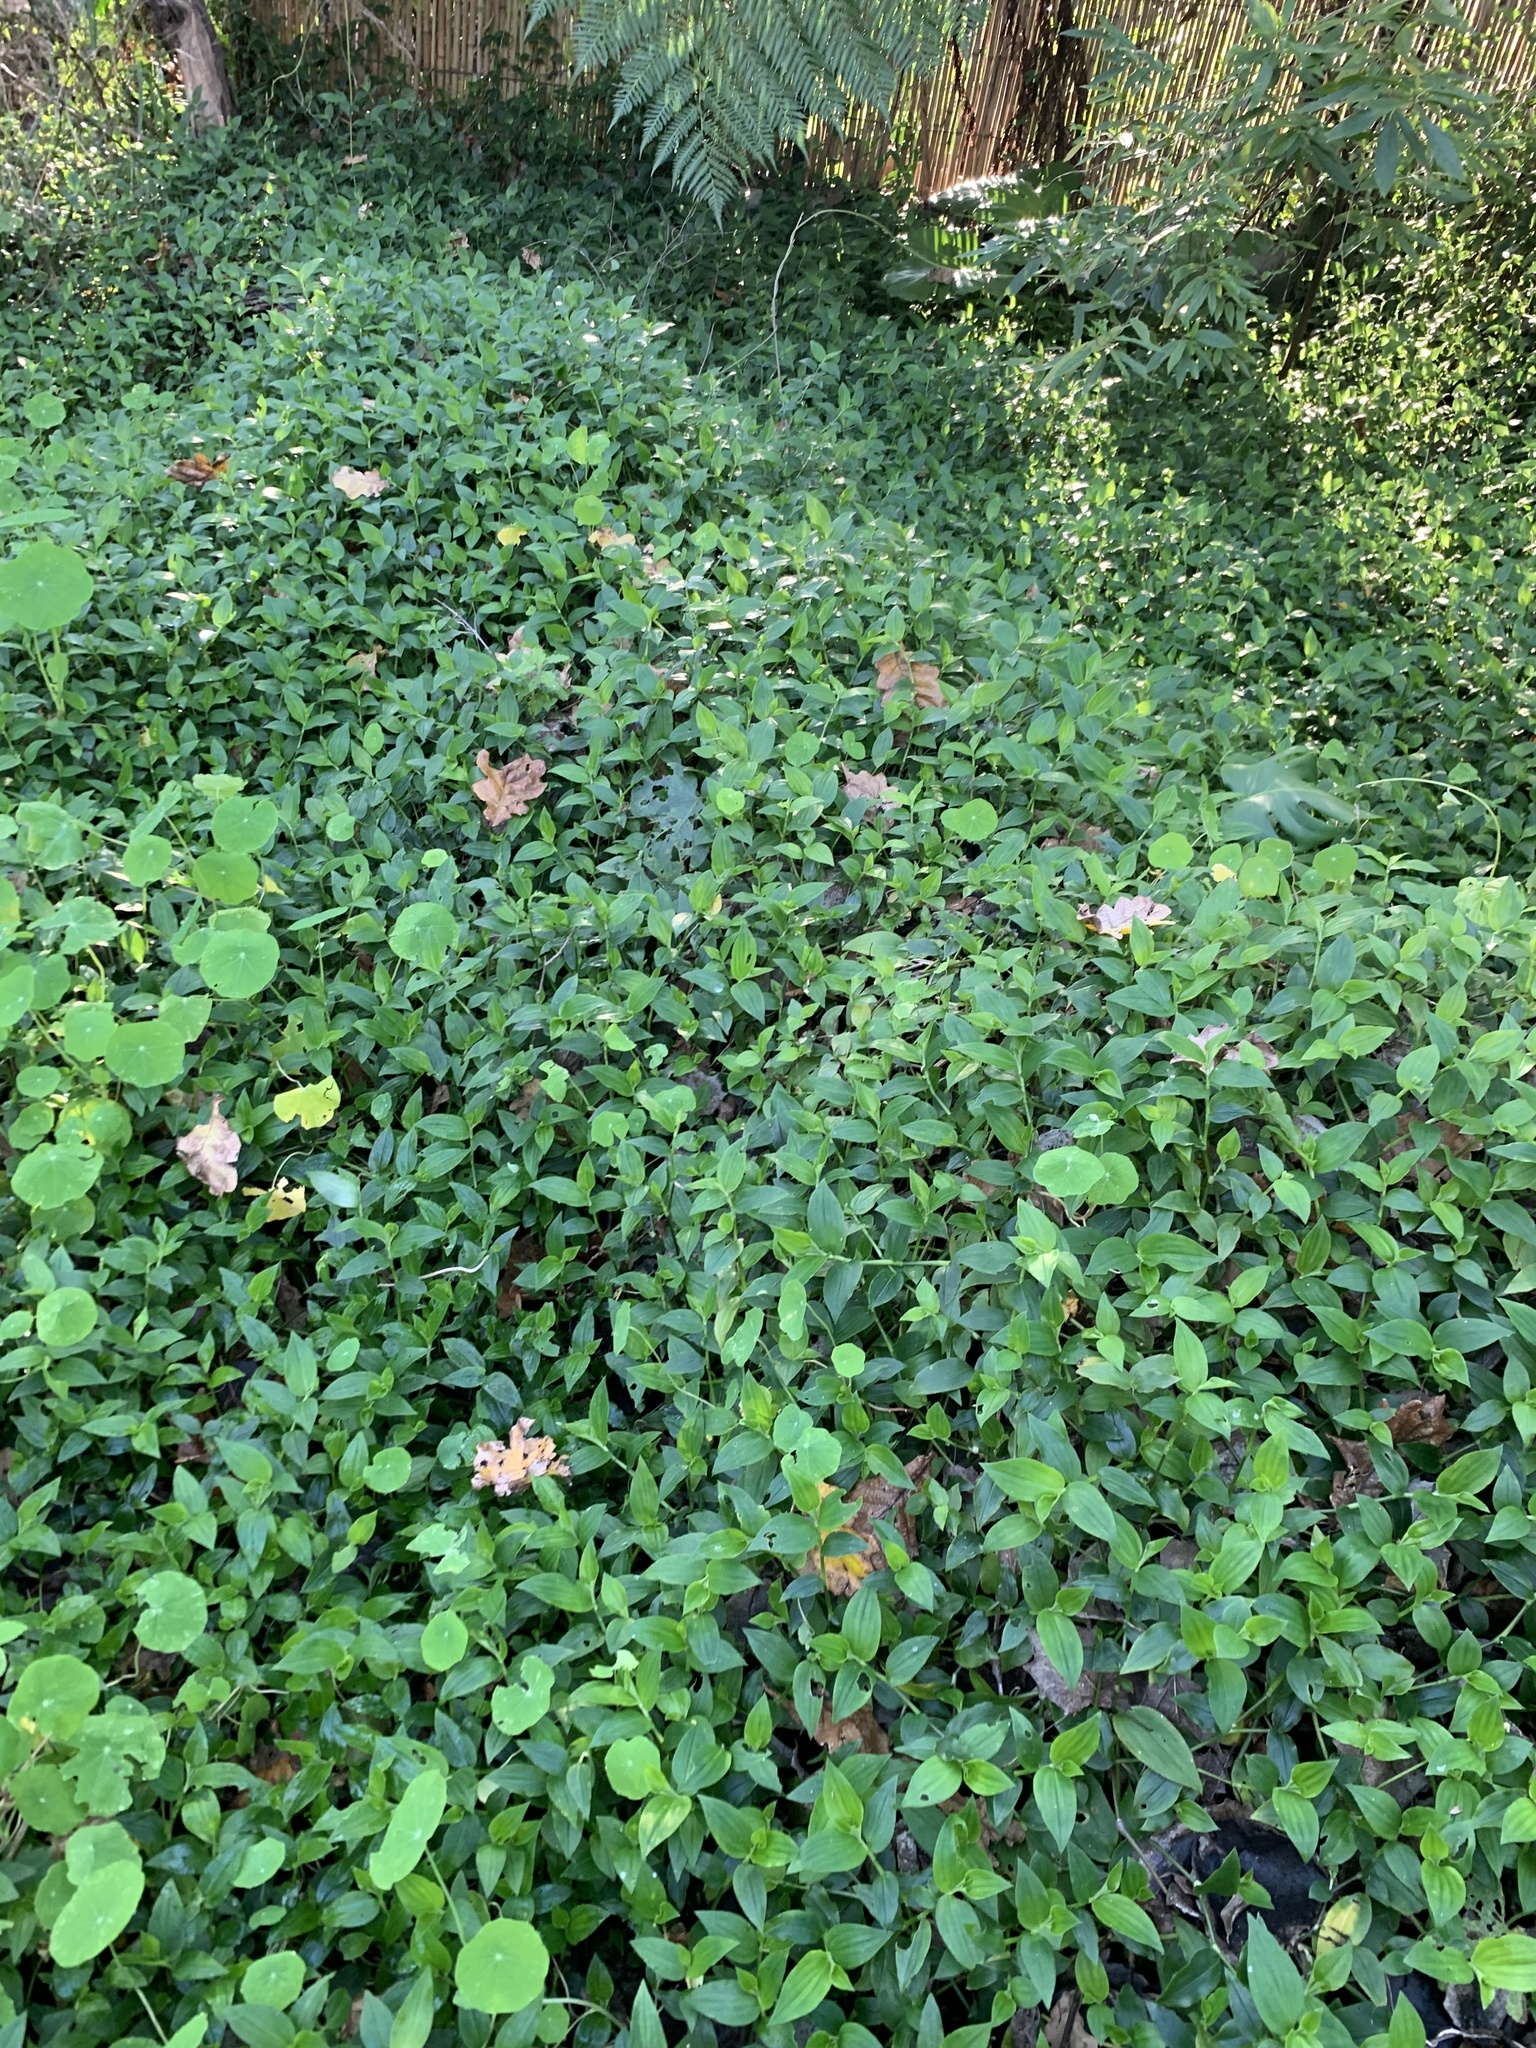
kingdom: Plantae
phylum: Tracheophyta
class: Liliopsida
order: Commelinales
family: Commelinaceae
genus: Tradescantia
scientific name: Tradescantia fluminensis
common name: Wandering-jew
